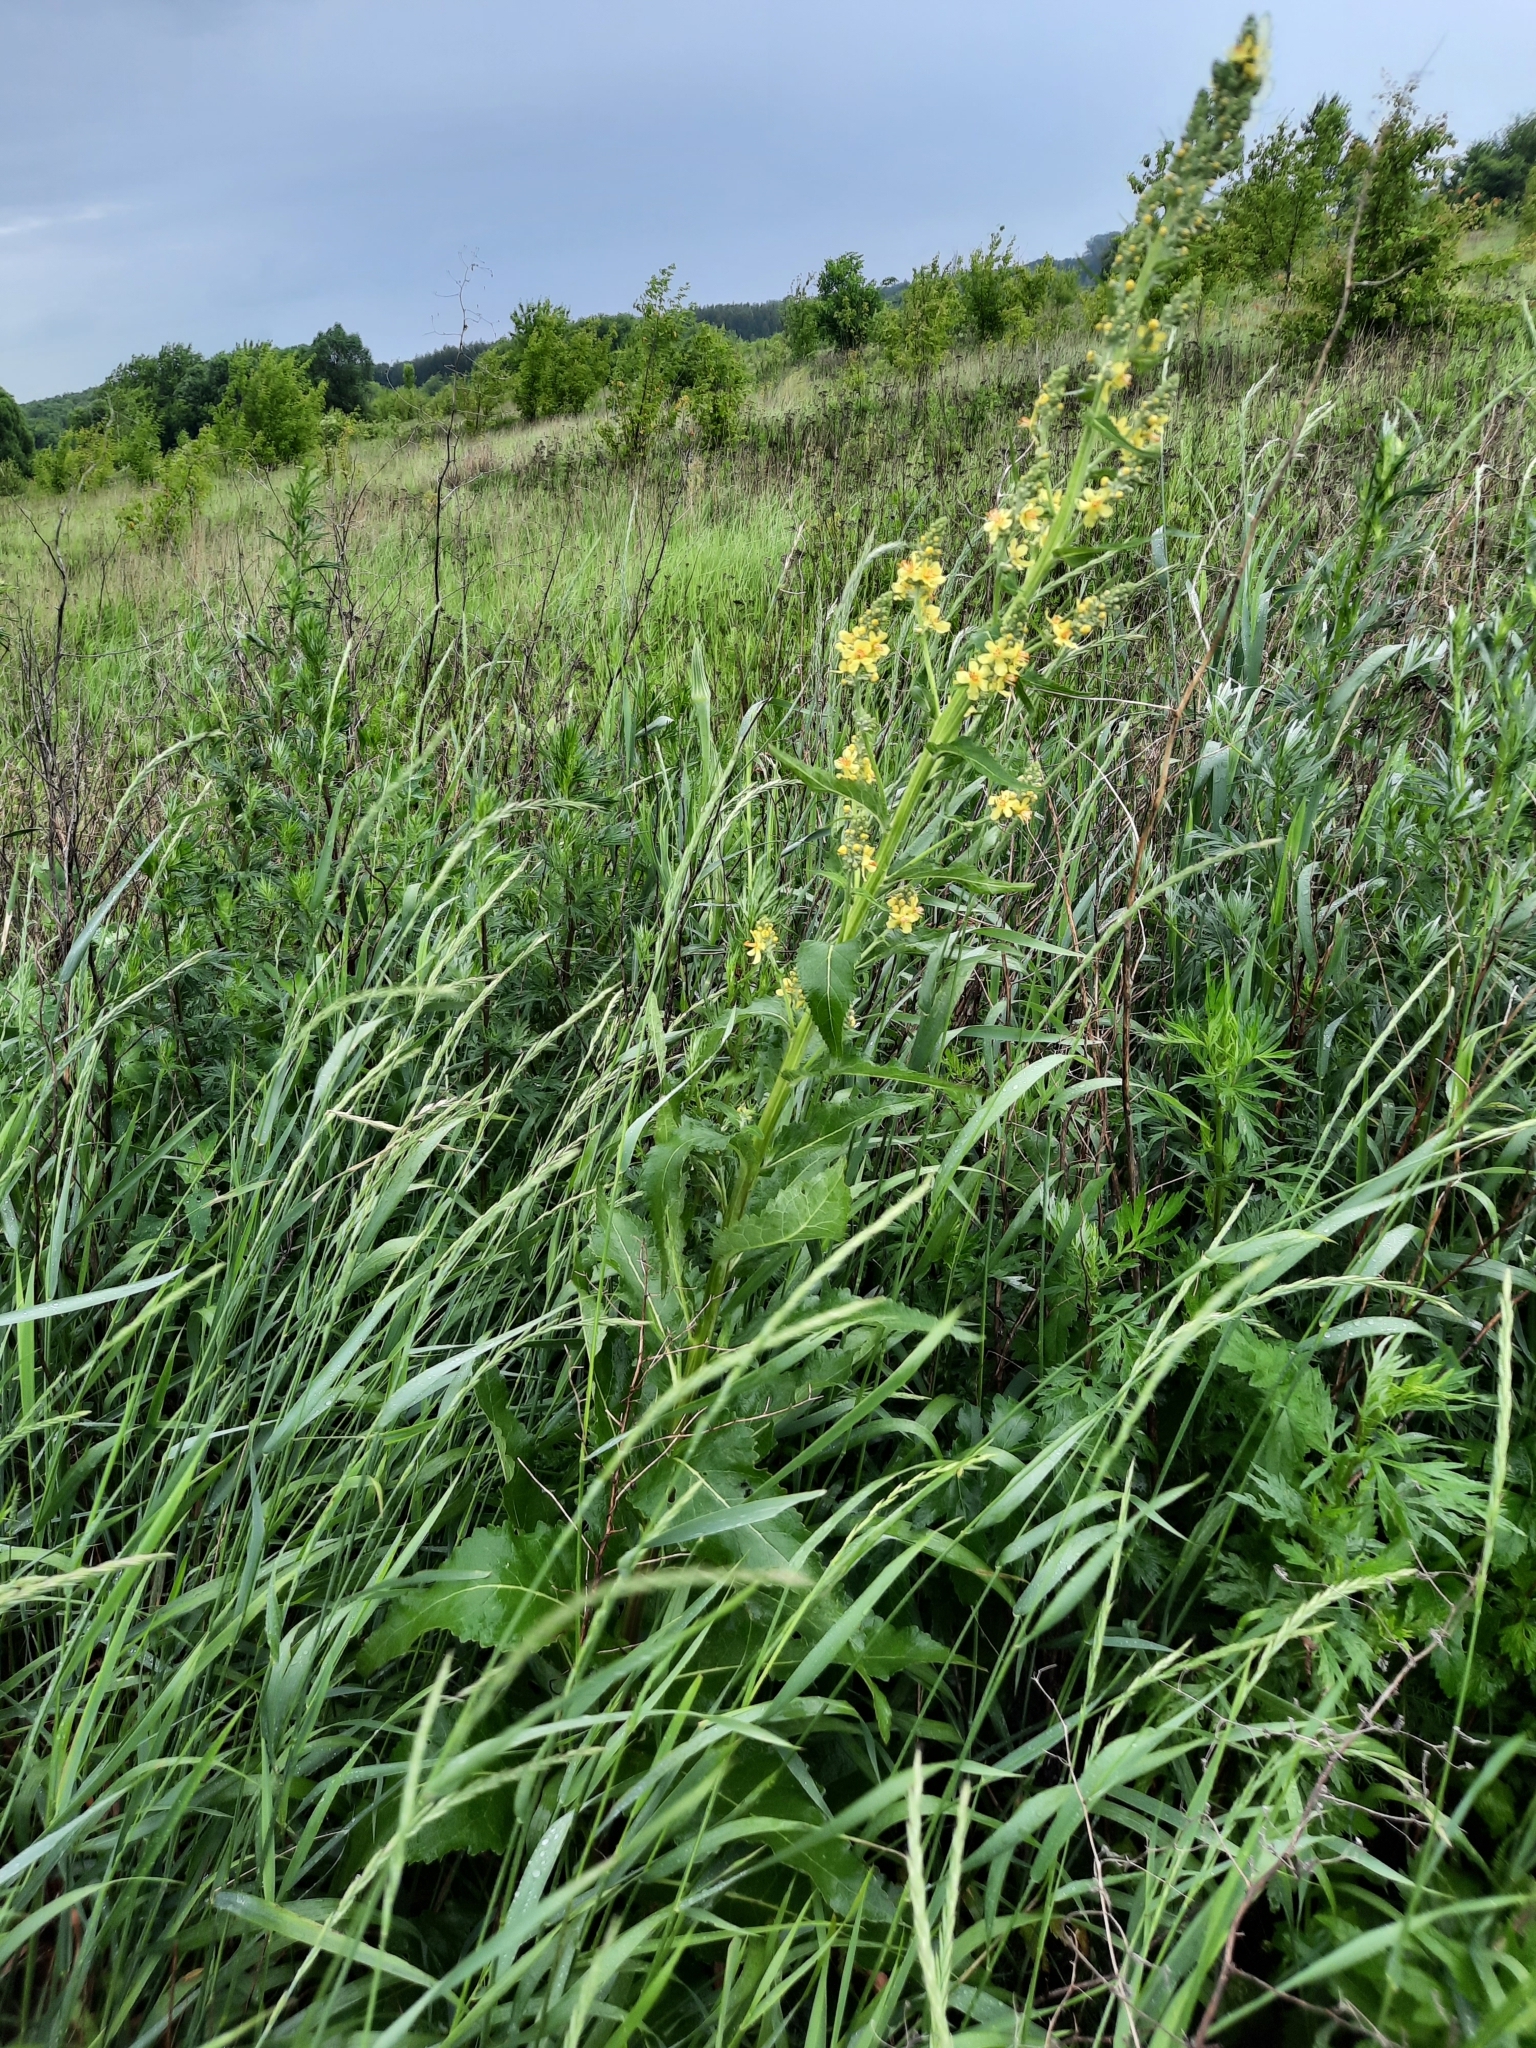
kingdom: Plantae
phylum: Tracheophyta
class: Magnoliopsida
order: Lamiales
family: Scrophulariaceae
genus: Verbascum
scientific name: Verbascum lychnitis
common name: White mullein
